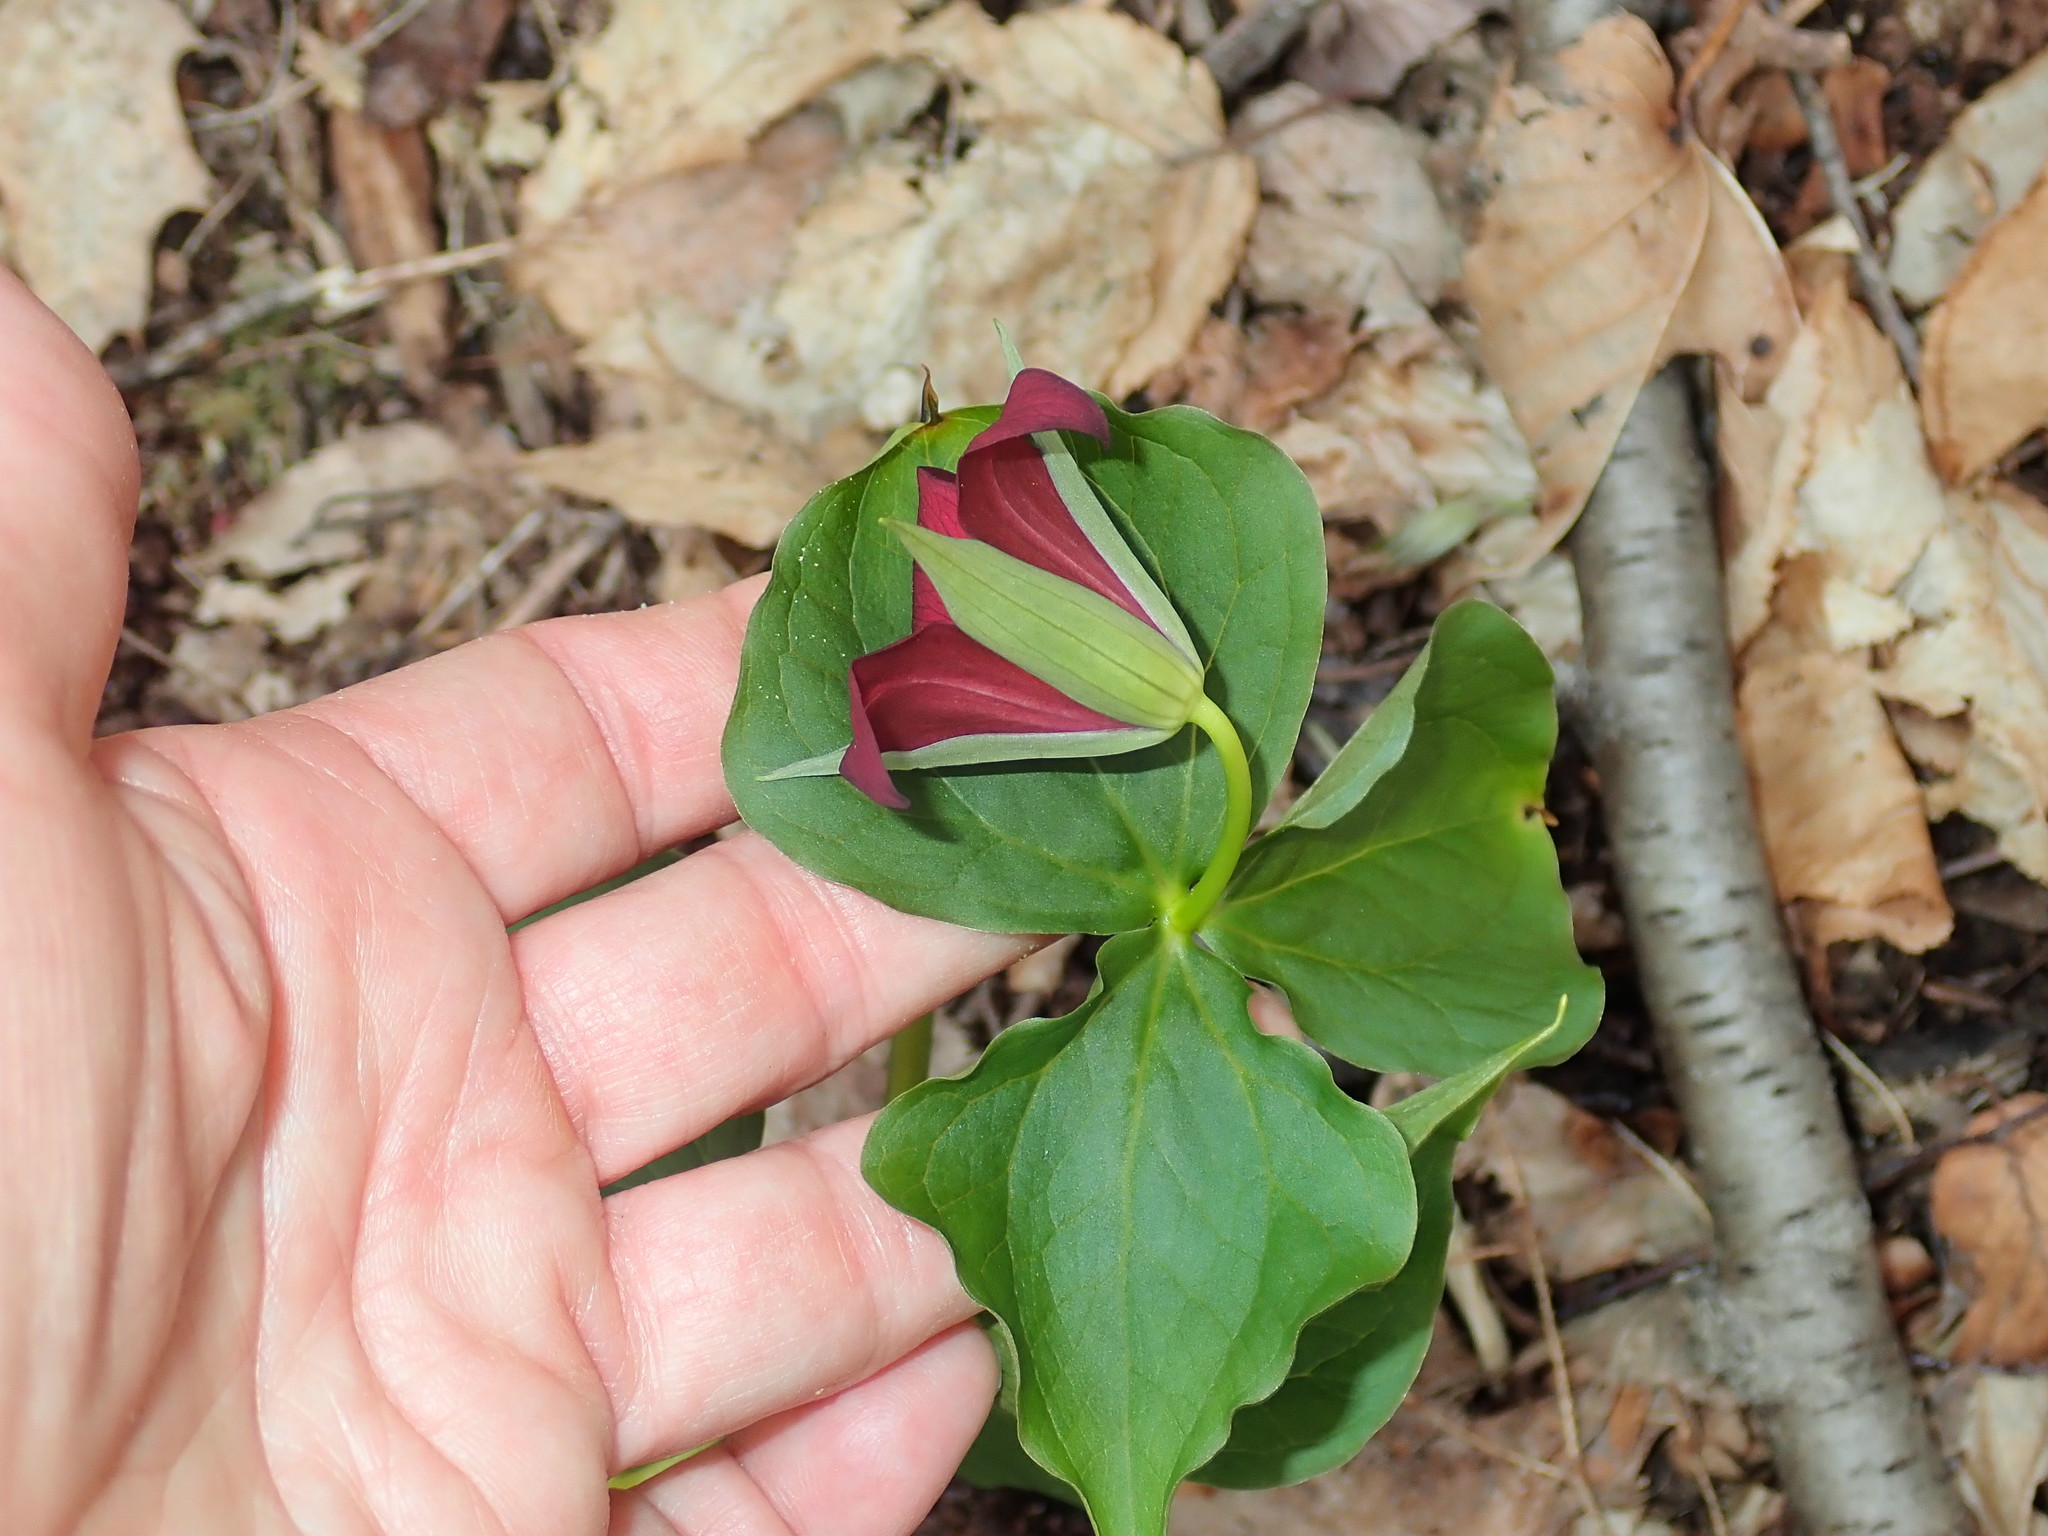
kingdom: Plantae
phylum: Tracheophyta
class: Liliopsida
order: Liliales
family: Melanthiaceae
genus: Trillium
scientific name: Trillium erectum
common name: Purple trillium
